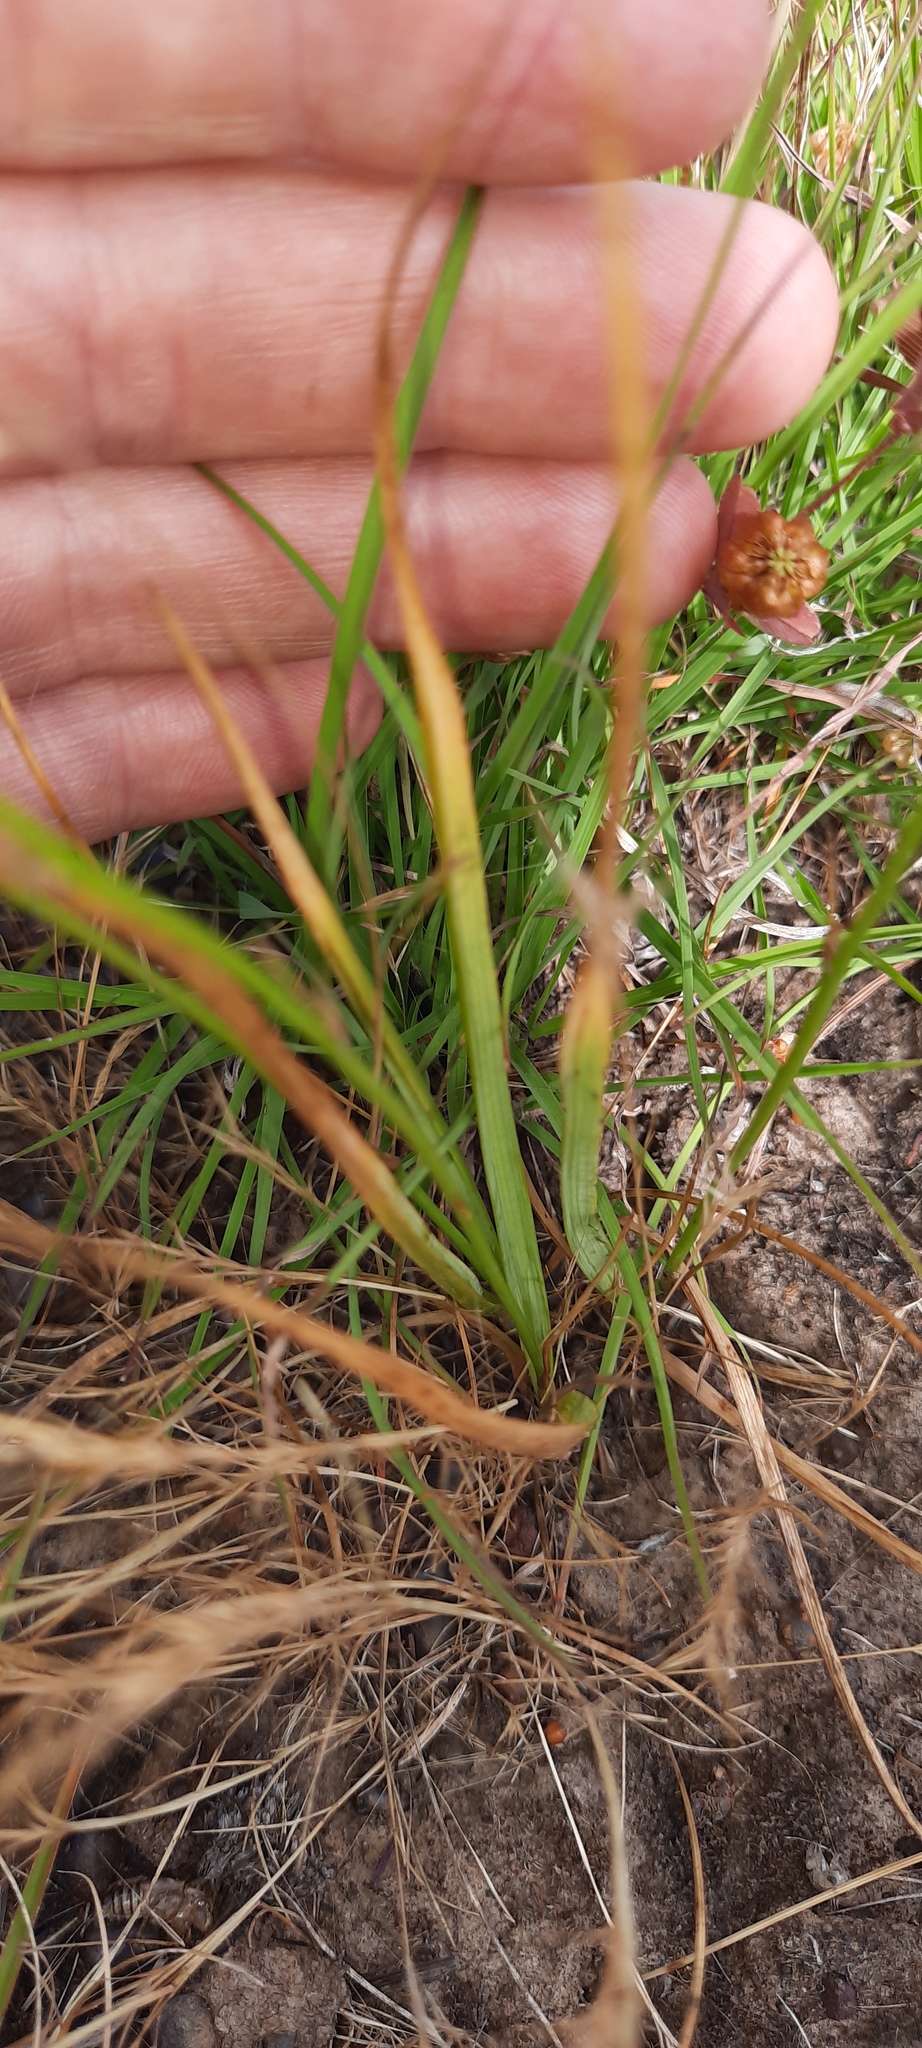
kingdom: Plantae
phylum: Tracheophyta
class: Liliopsida
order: Asparagales
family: Asphodelaceae
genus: Caesia
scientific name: Caesia calliantha
